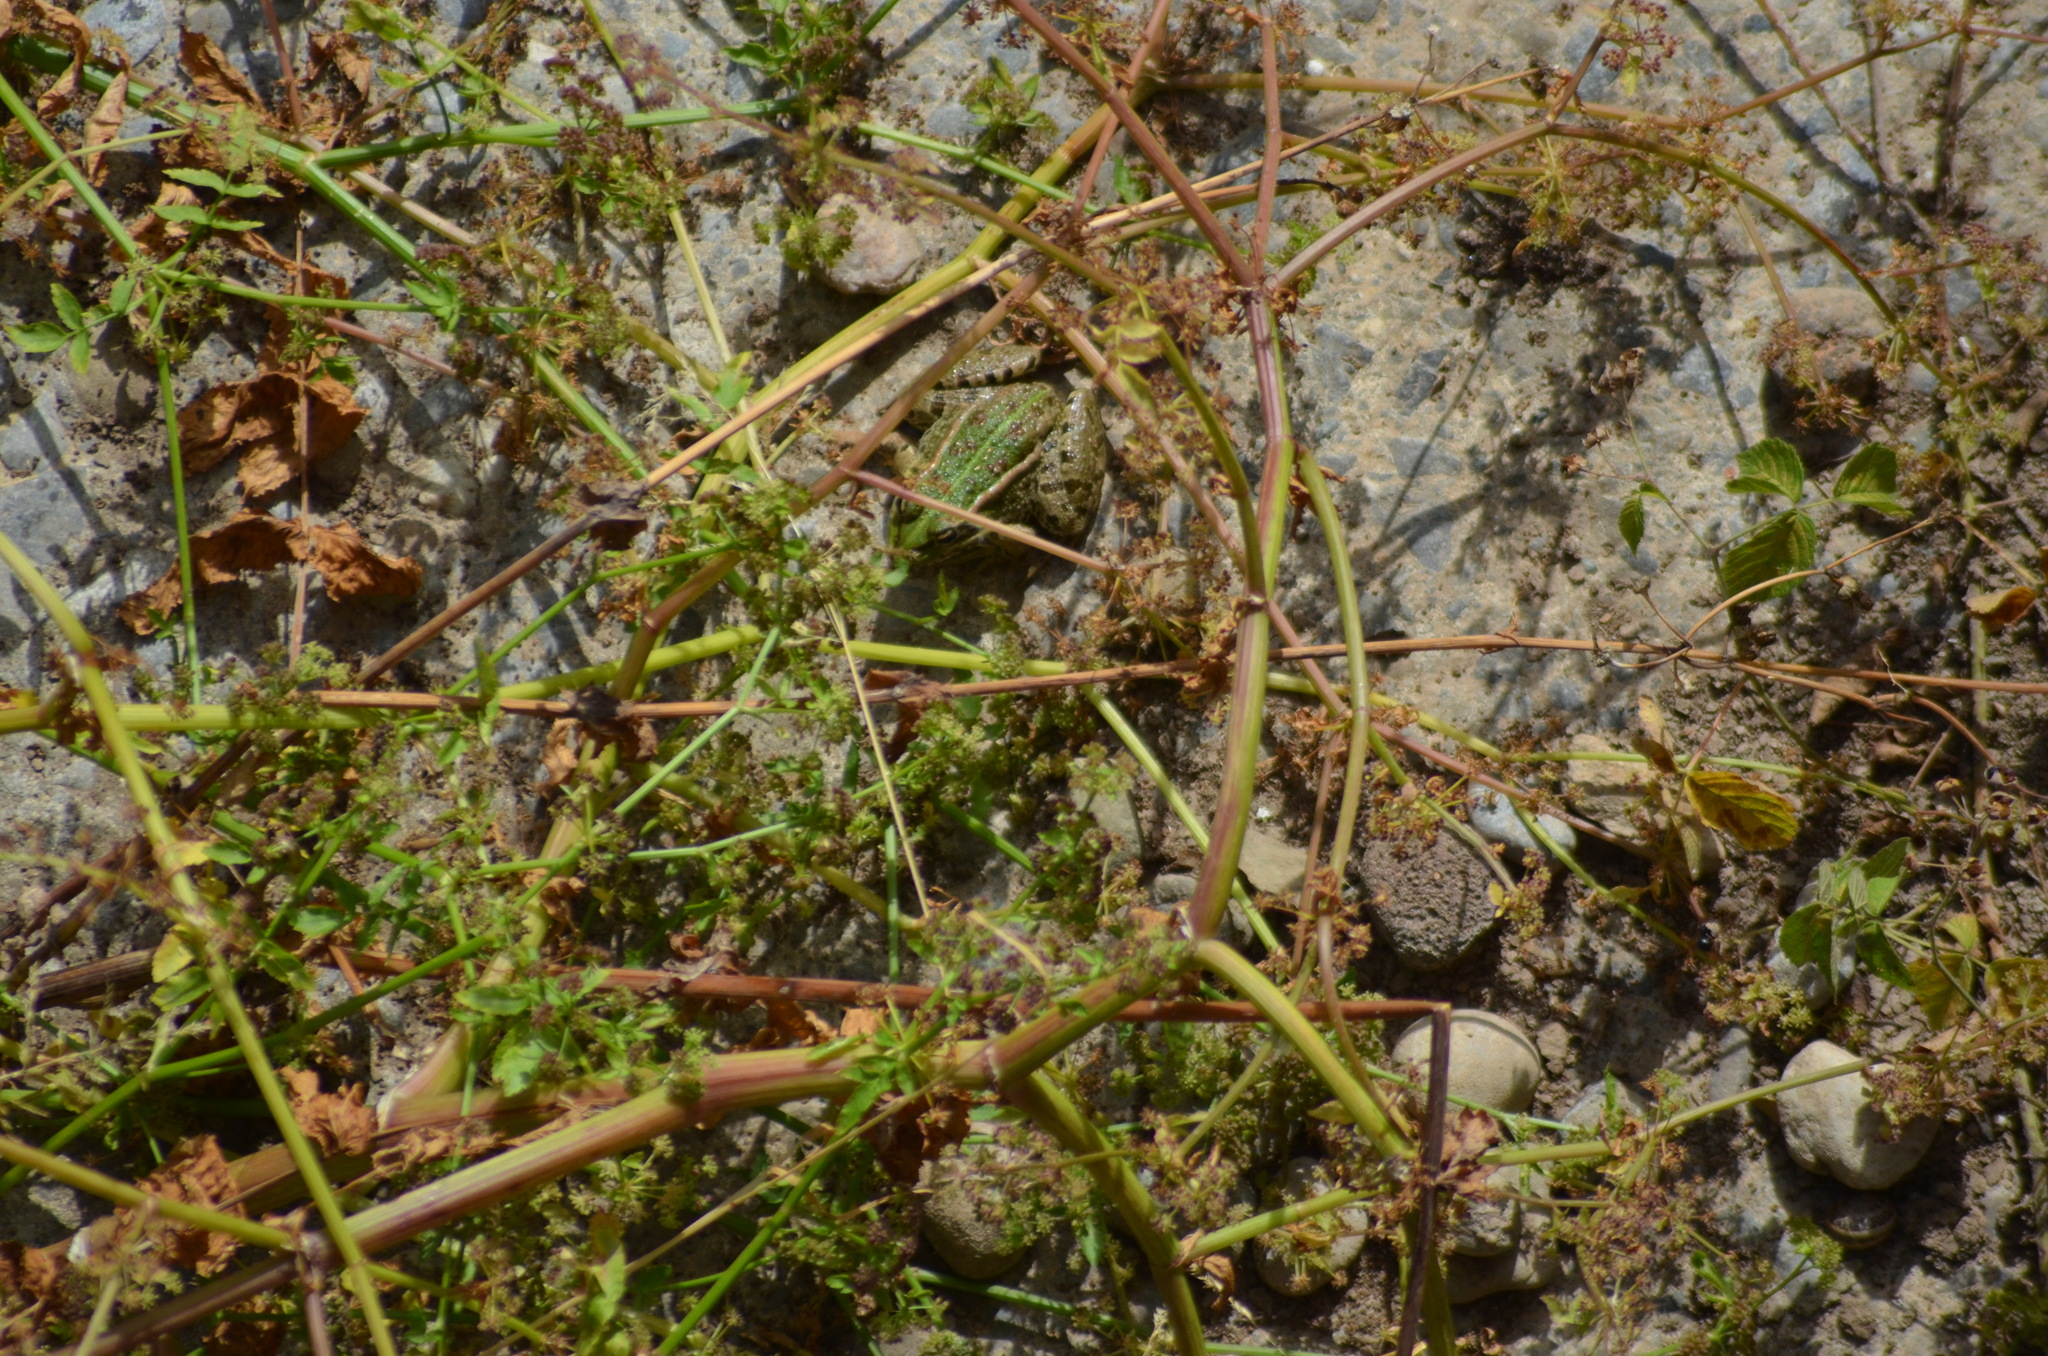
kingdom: Animalia
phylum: Chordata
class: Amphibia
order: Anura
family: Ranidae
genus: Pelophylax
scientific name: Pelophylax perezi
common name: Perez's frog
